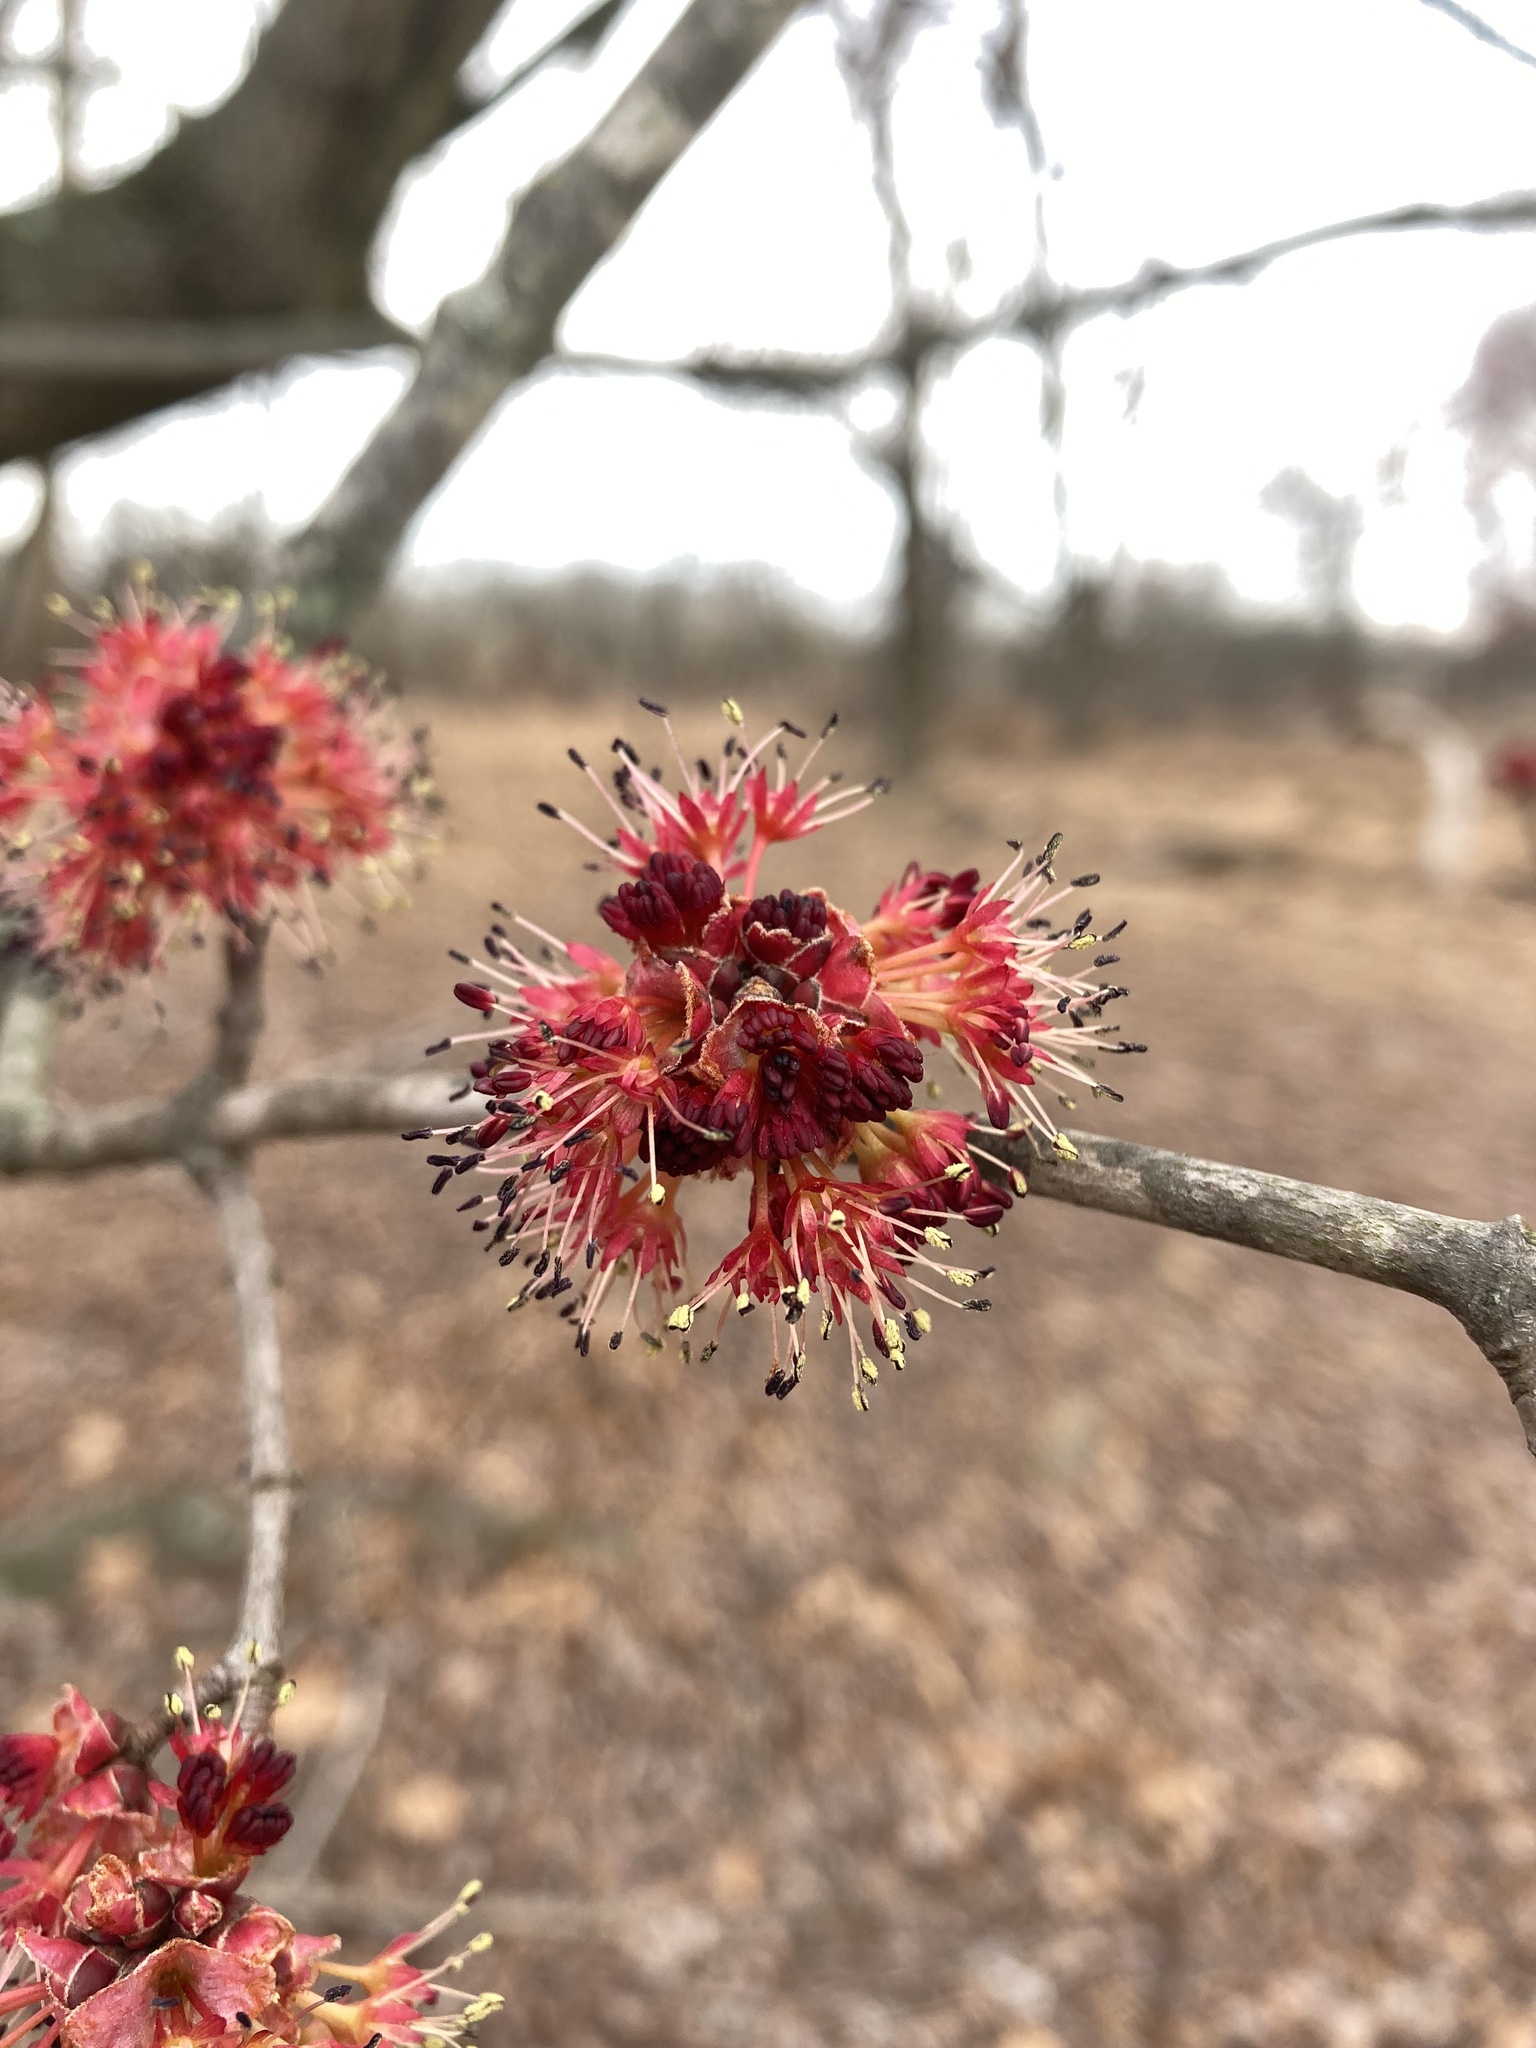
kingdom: Plantae
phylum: Tracheophyta
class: Magnoliopsida
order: Sapindales
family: Sapindaceae
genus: Acer
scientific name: Acer rubrum
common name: Red maple
